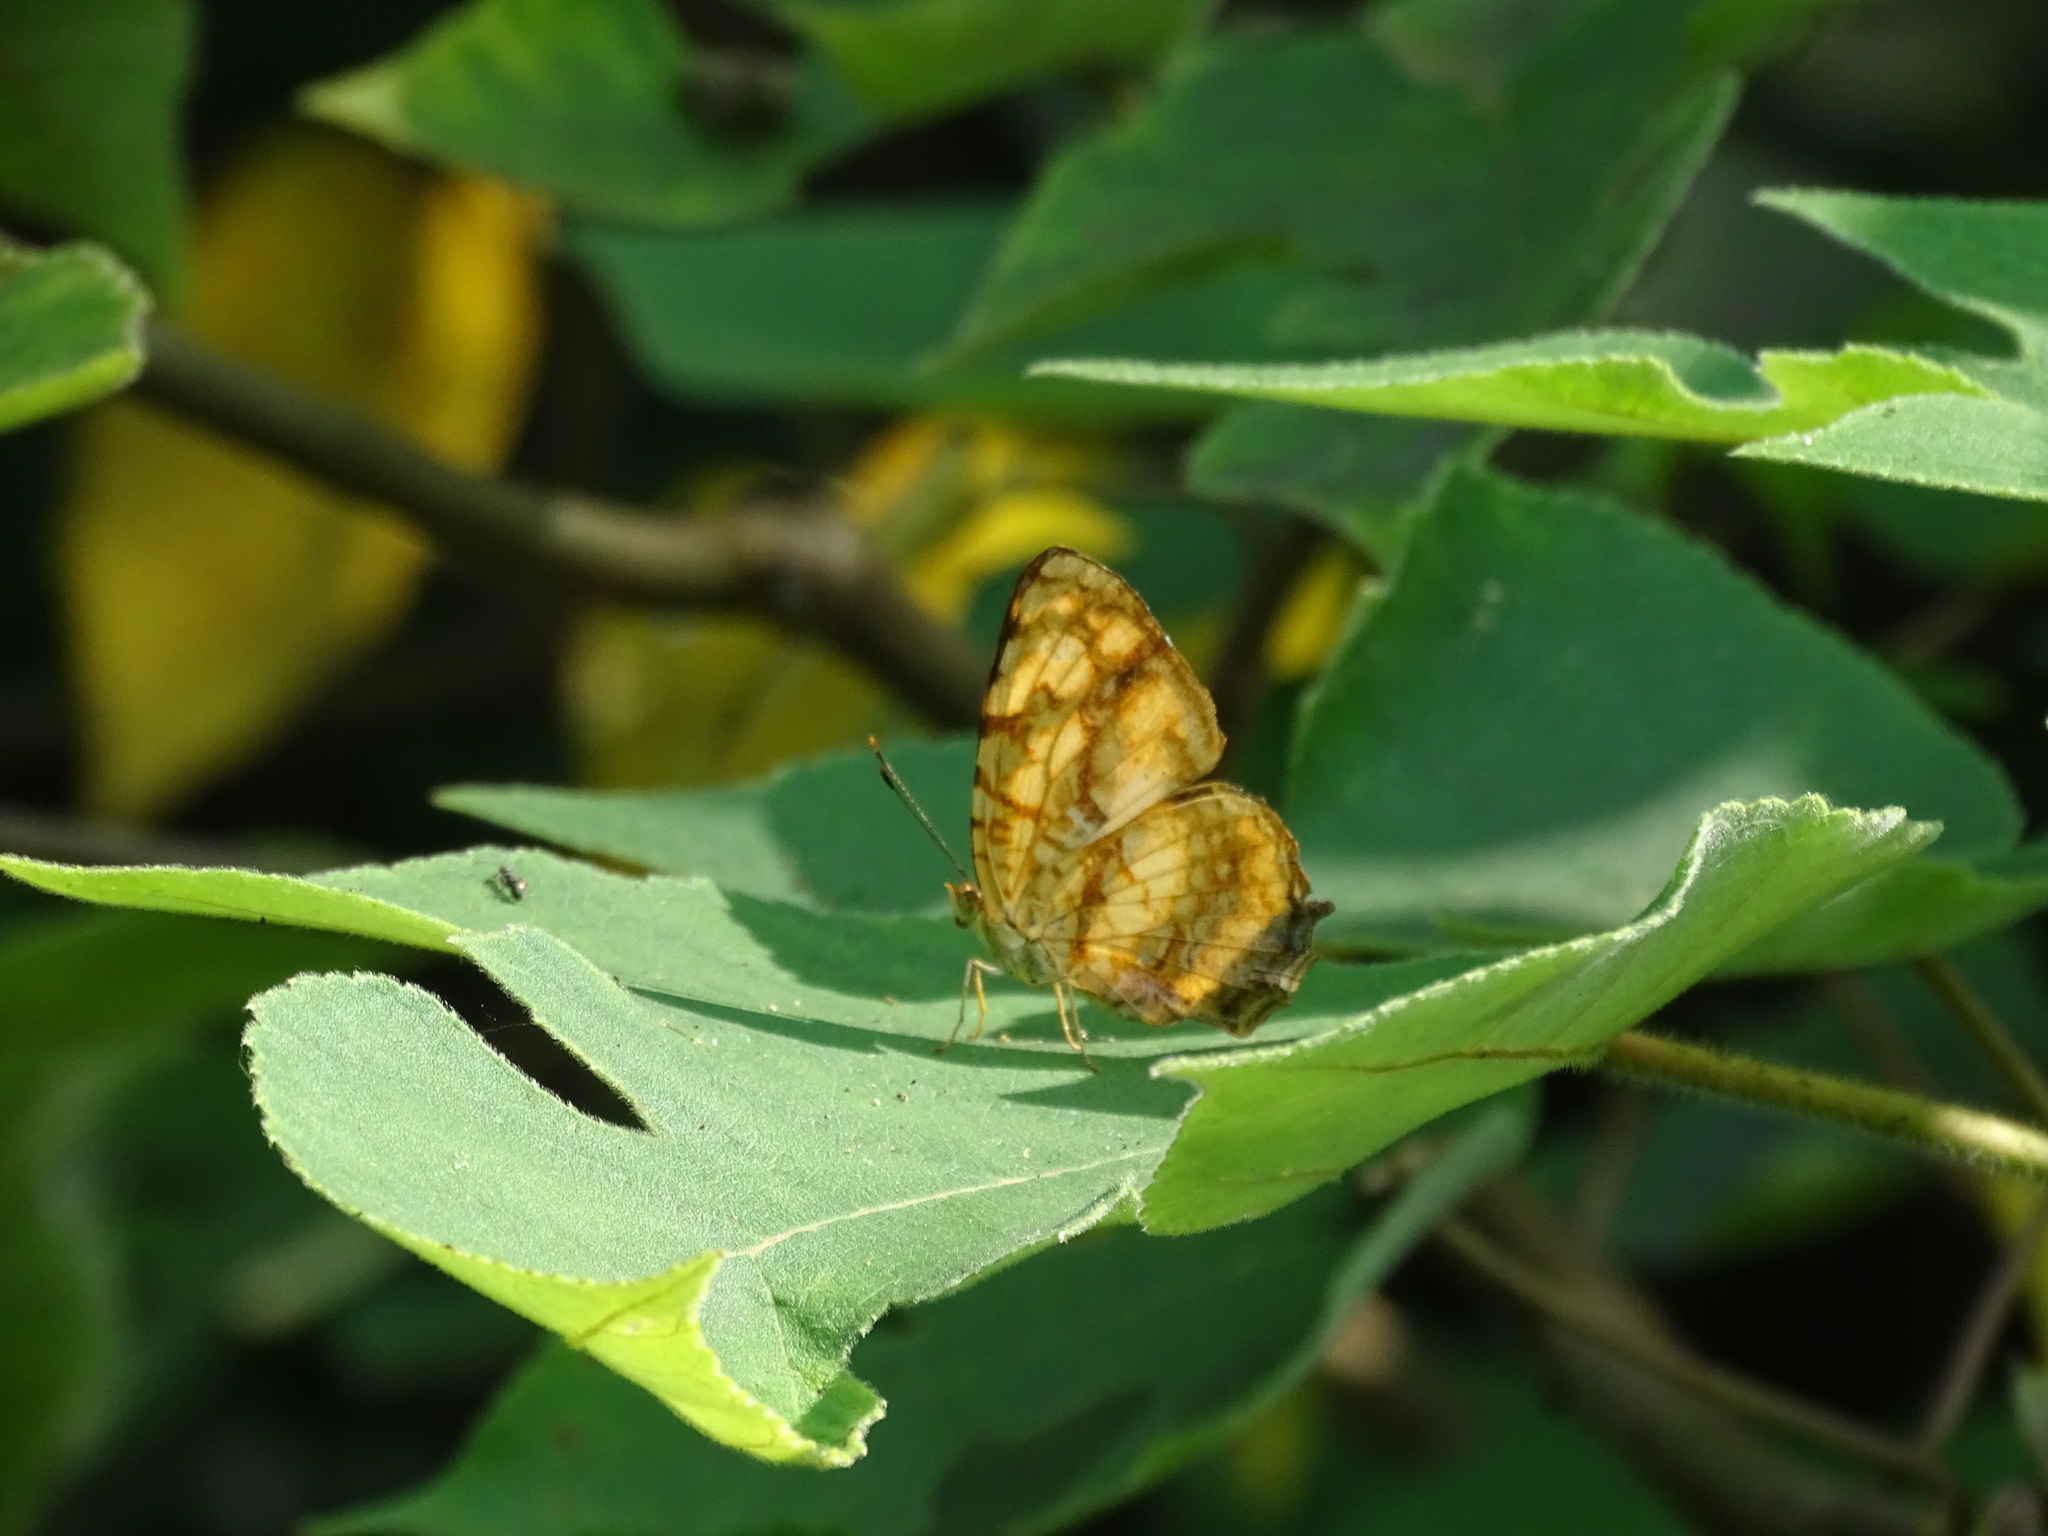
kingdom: Animalia
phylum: Arthropoda
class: Insecta
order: Lepidoptera
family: Nymphalidae
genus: Symbrenthia
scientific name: Symbrenthia hypselis
